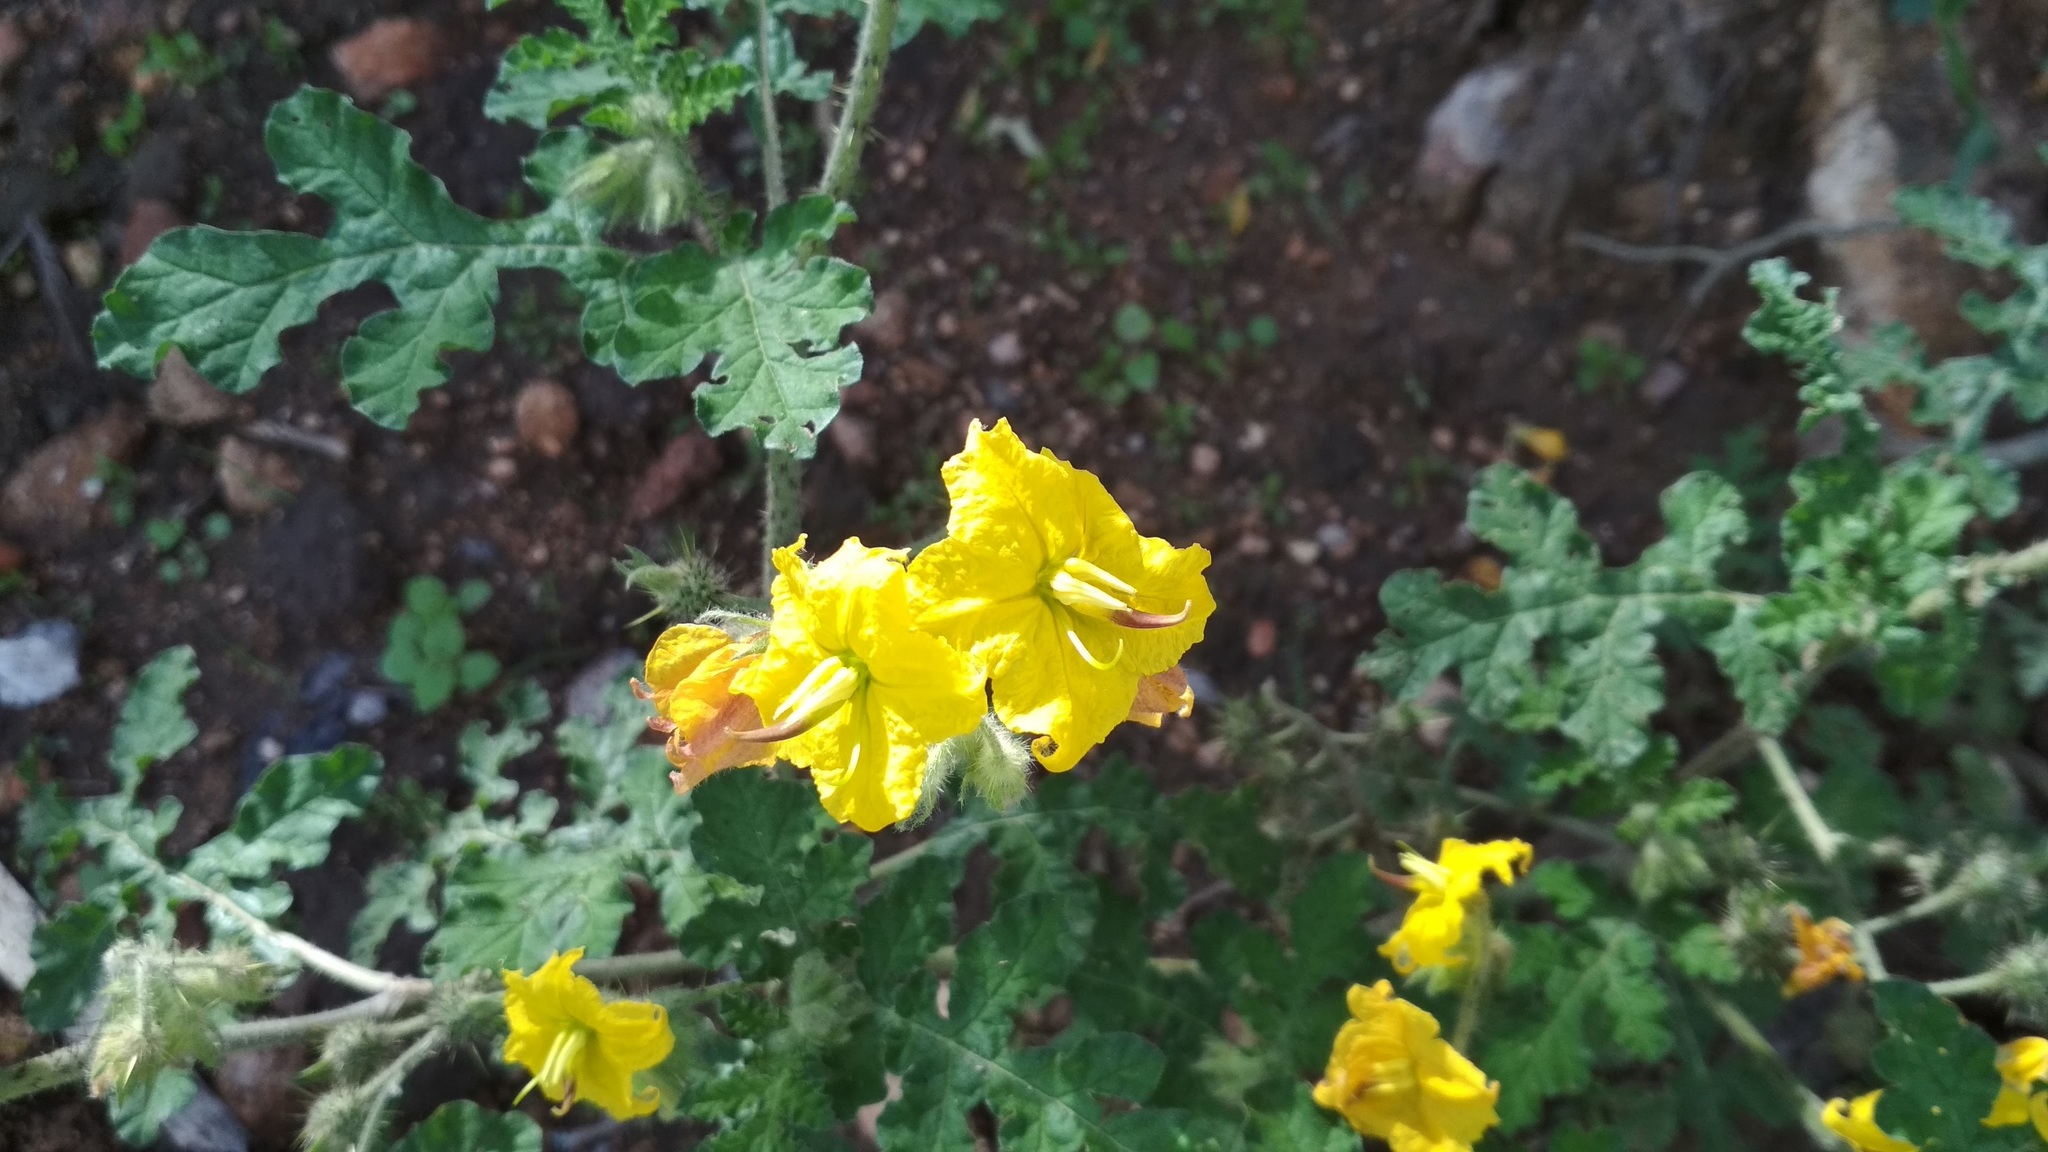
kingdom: Plantae
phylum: Tracheophyta
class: Magnoliopsida
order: Solanales
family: Solanaceae
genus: Solanum
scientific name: Solanum angustifolium
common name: Buffalobur nightshade
